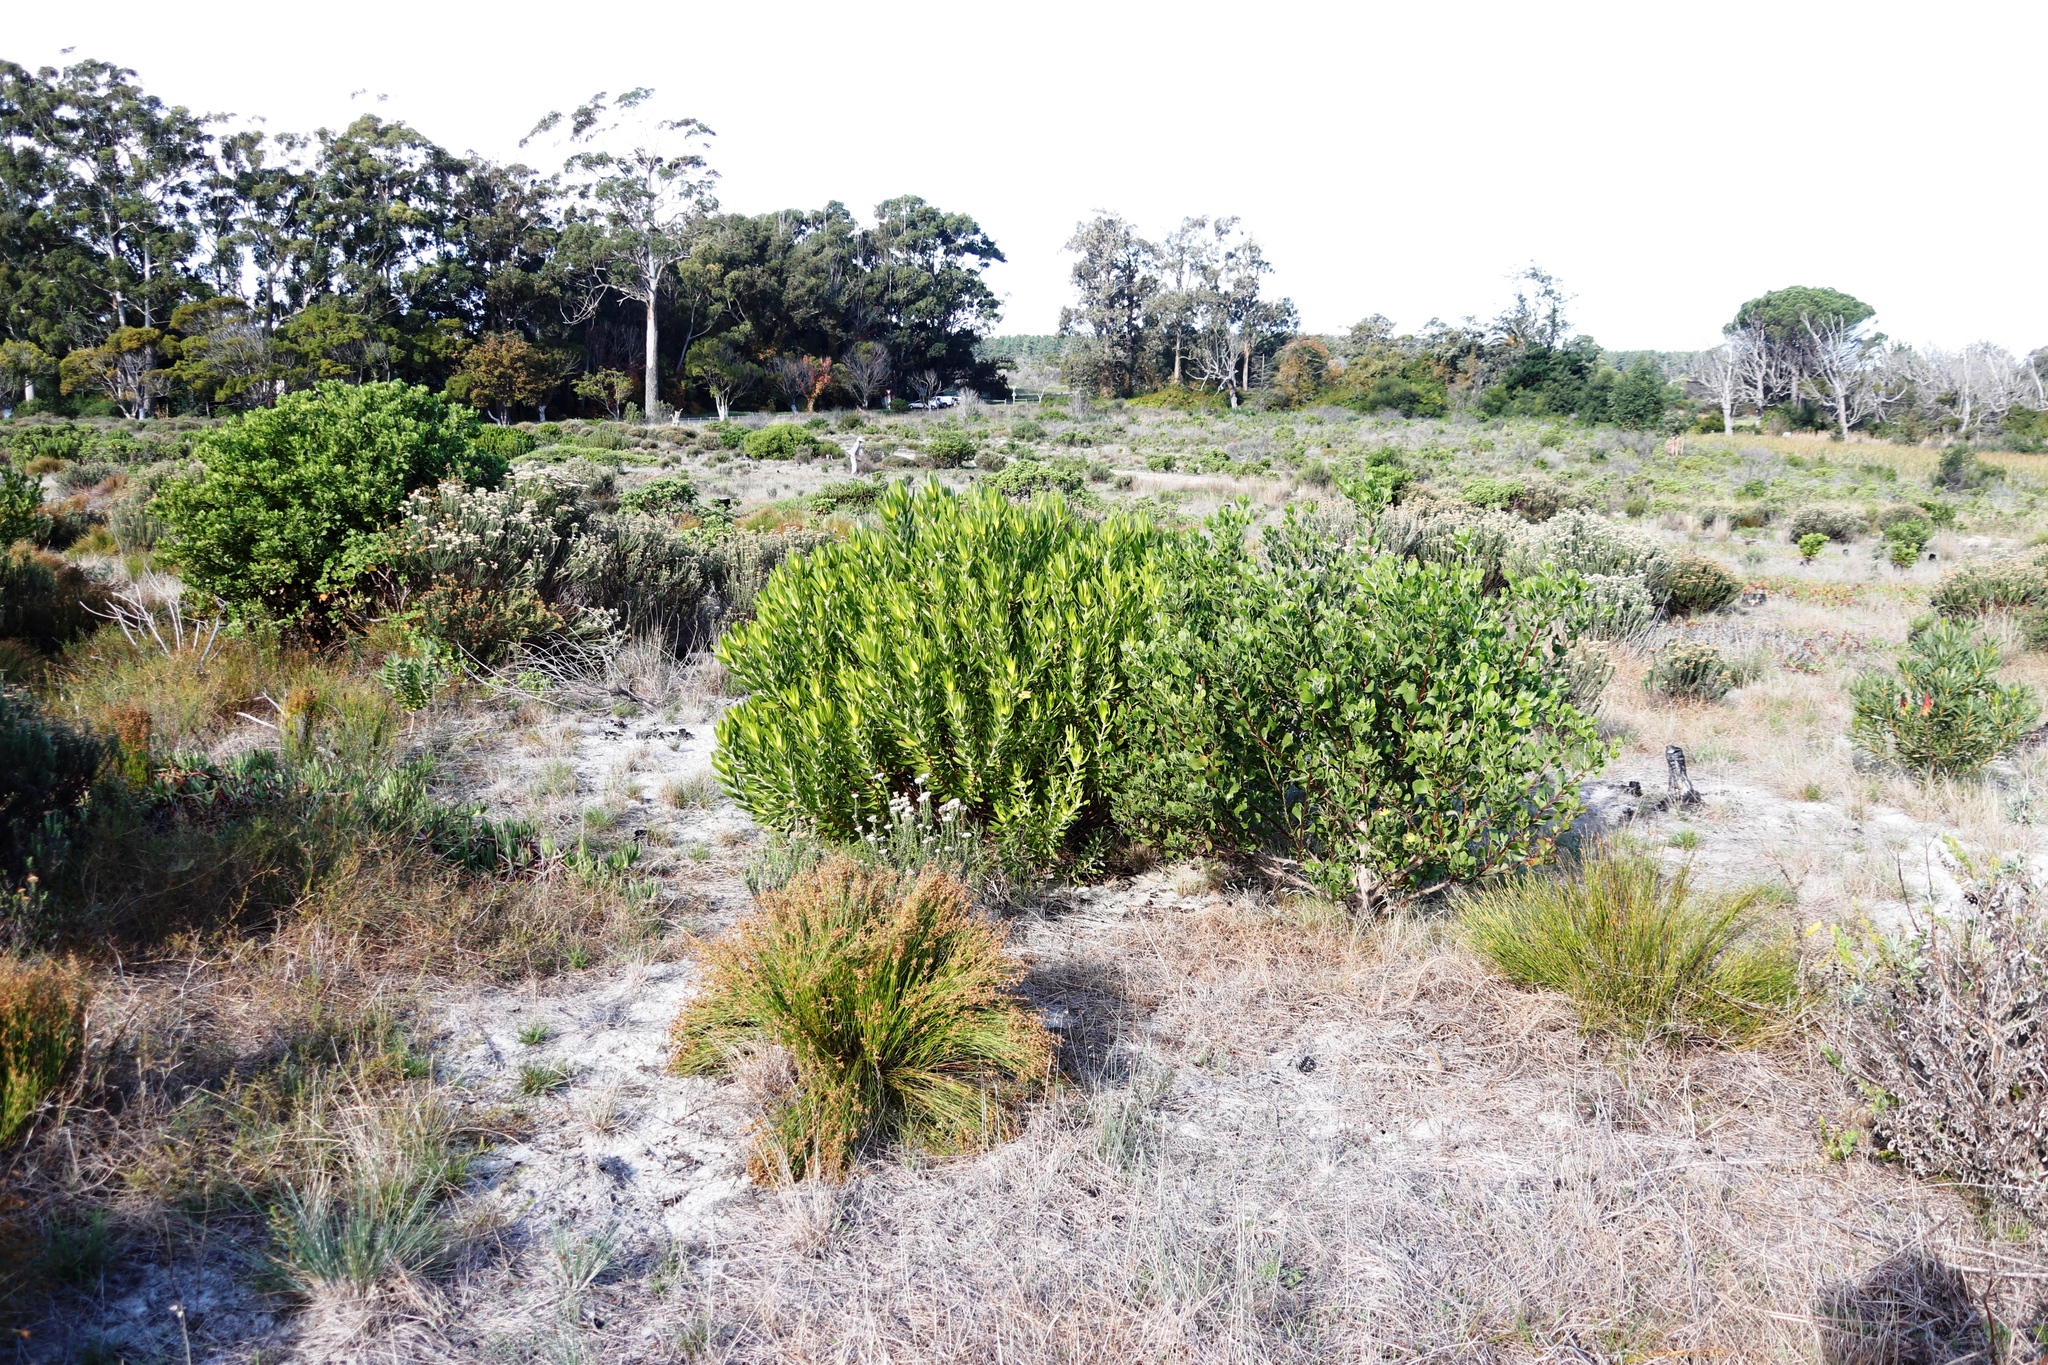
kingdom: Plantae
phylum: Tracheophyta
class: Magnoliopsida
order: Proteales
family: Proteaceae
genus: Leucadendron
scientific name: Leucadendron laureolum
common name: Golden sunshinebush
